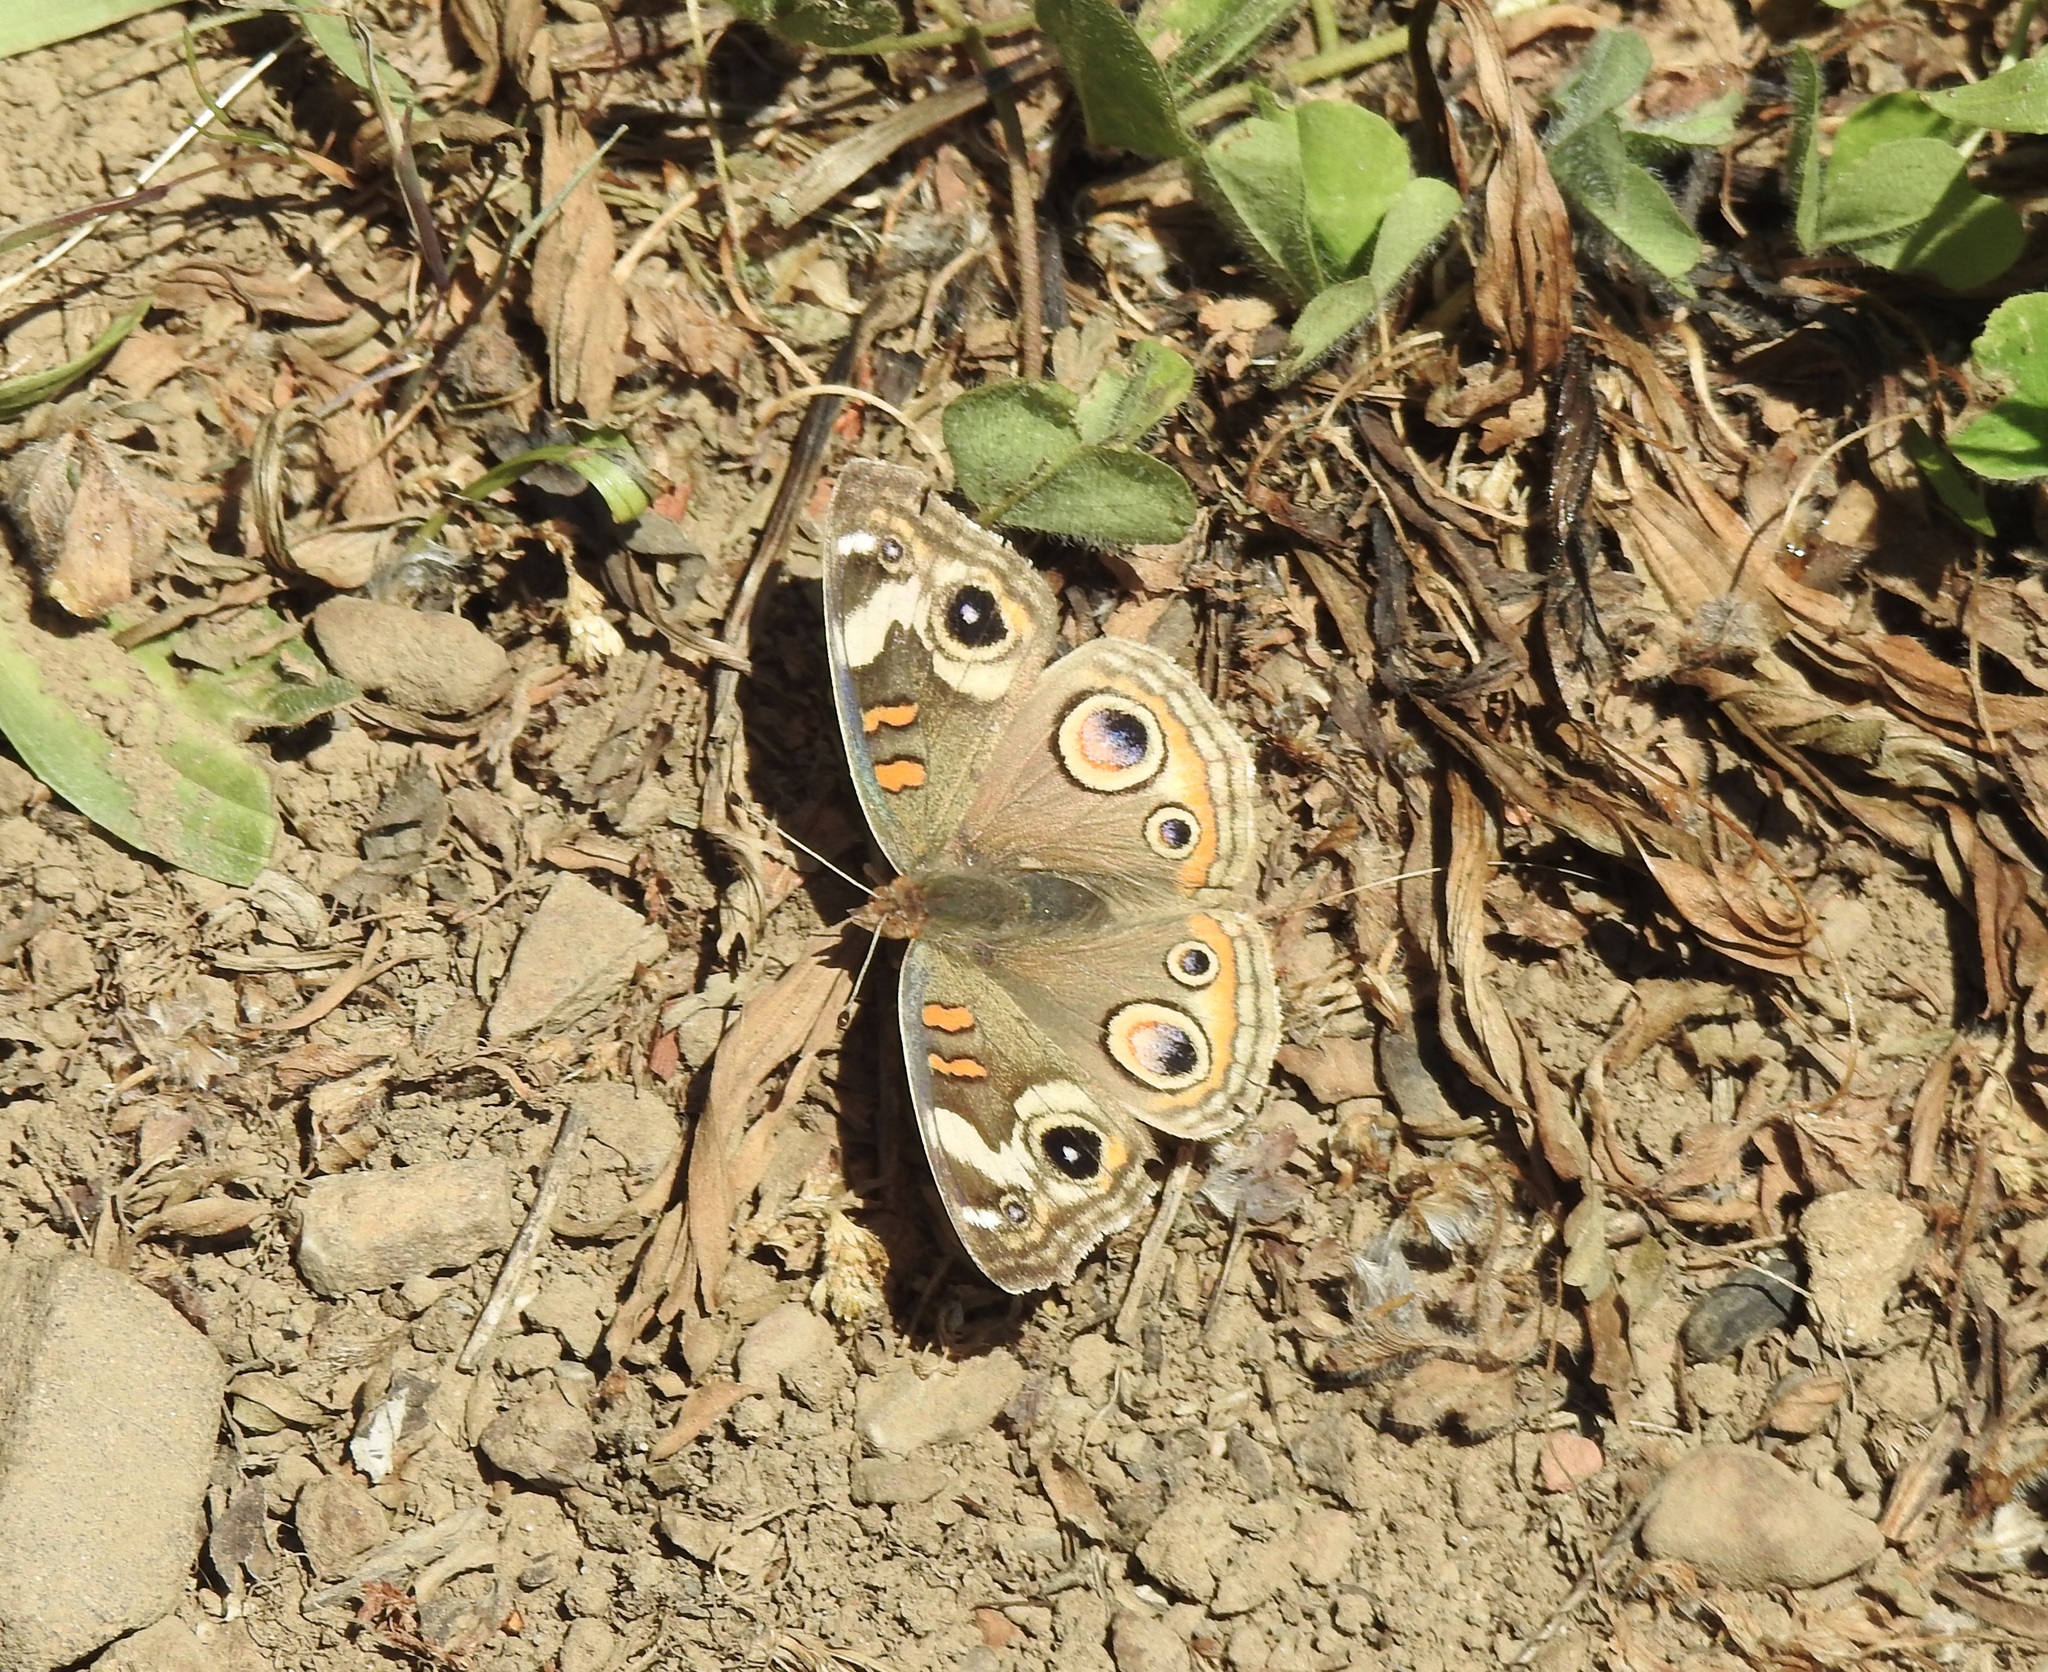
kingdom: Animalia
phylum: Arthropoda
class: Insecta
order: Lepidoptera
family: Nymphalidae
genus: Junonia
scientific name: Junonia grisea
